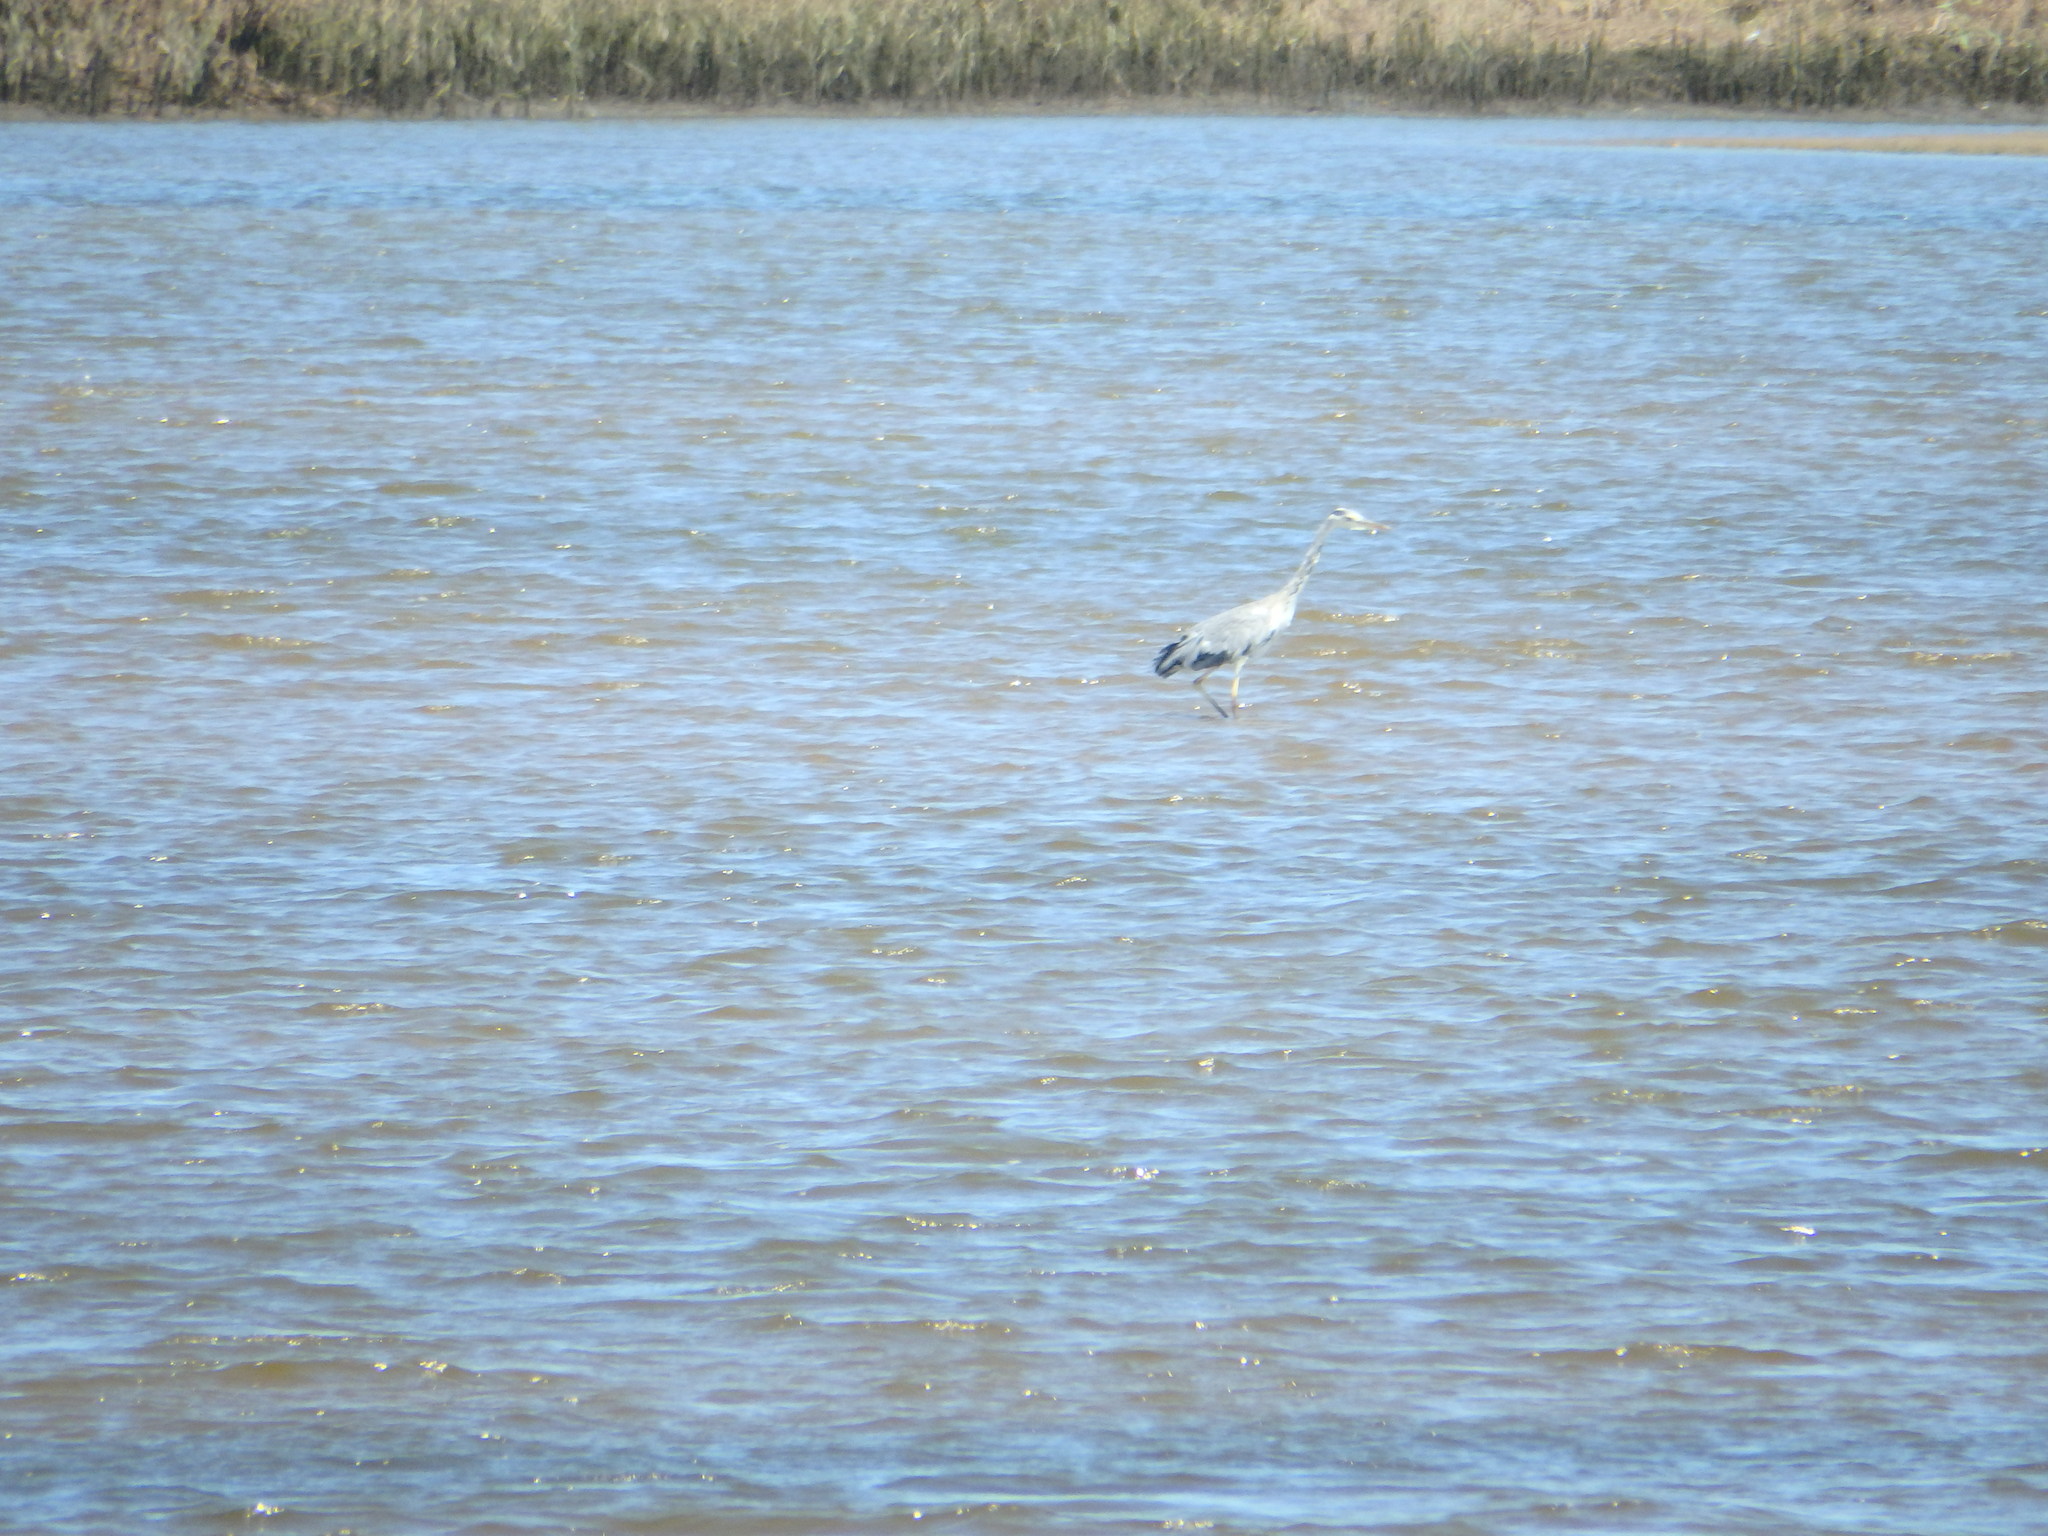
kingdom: Animalia
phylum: Chordata
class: Aves
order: Pelecaniformes
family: Ardeidae
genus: Ardea
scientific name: Ardea cinerea
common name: Grey heron
